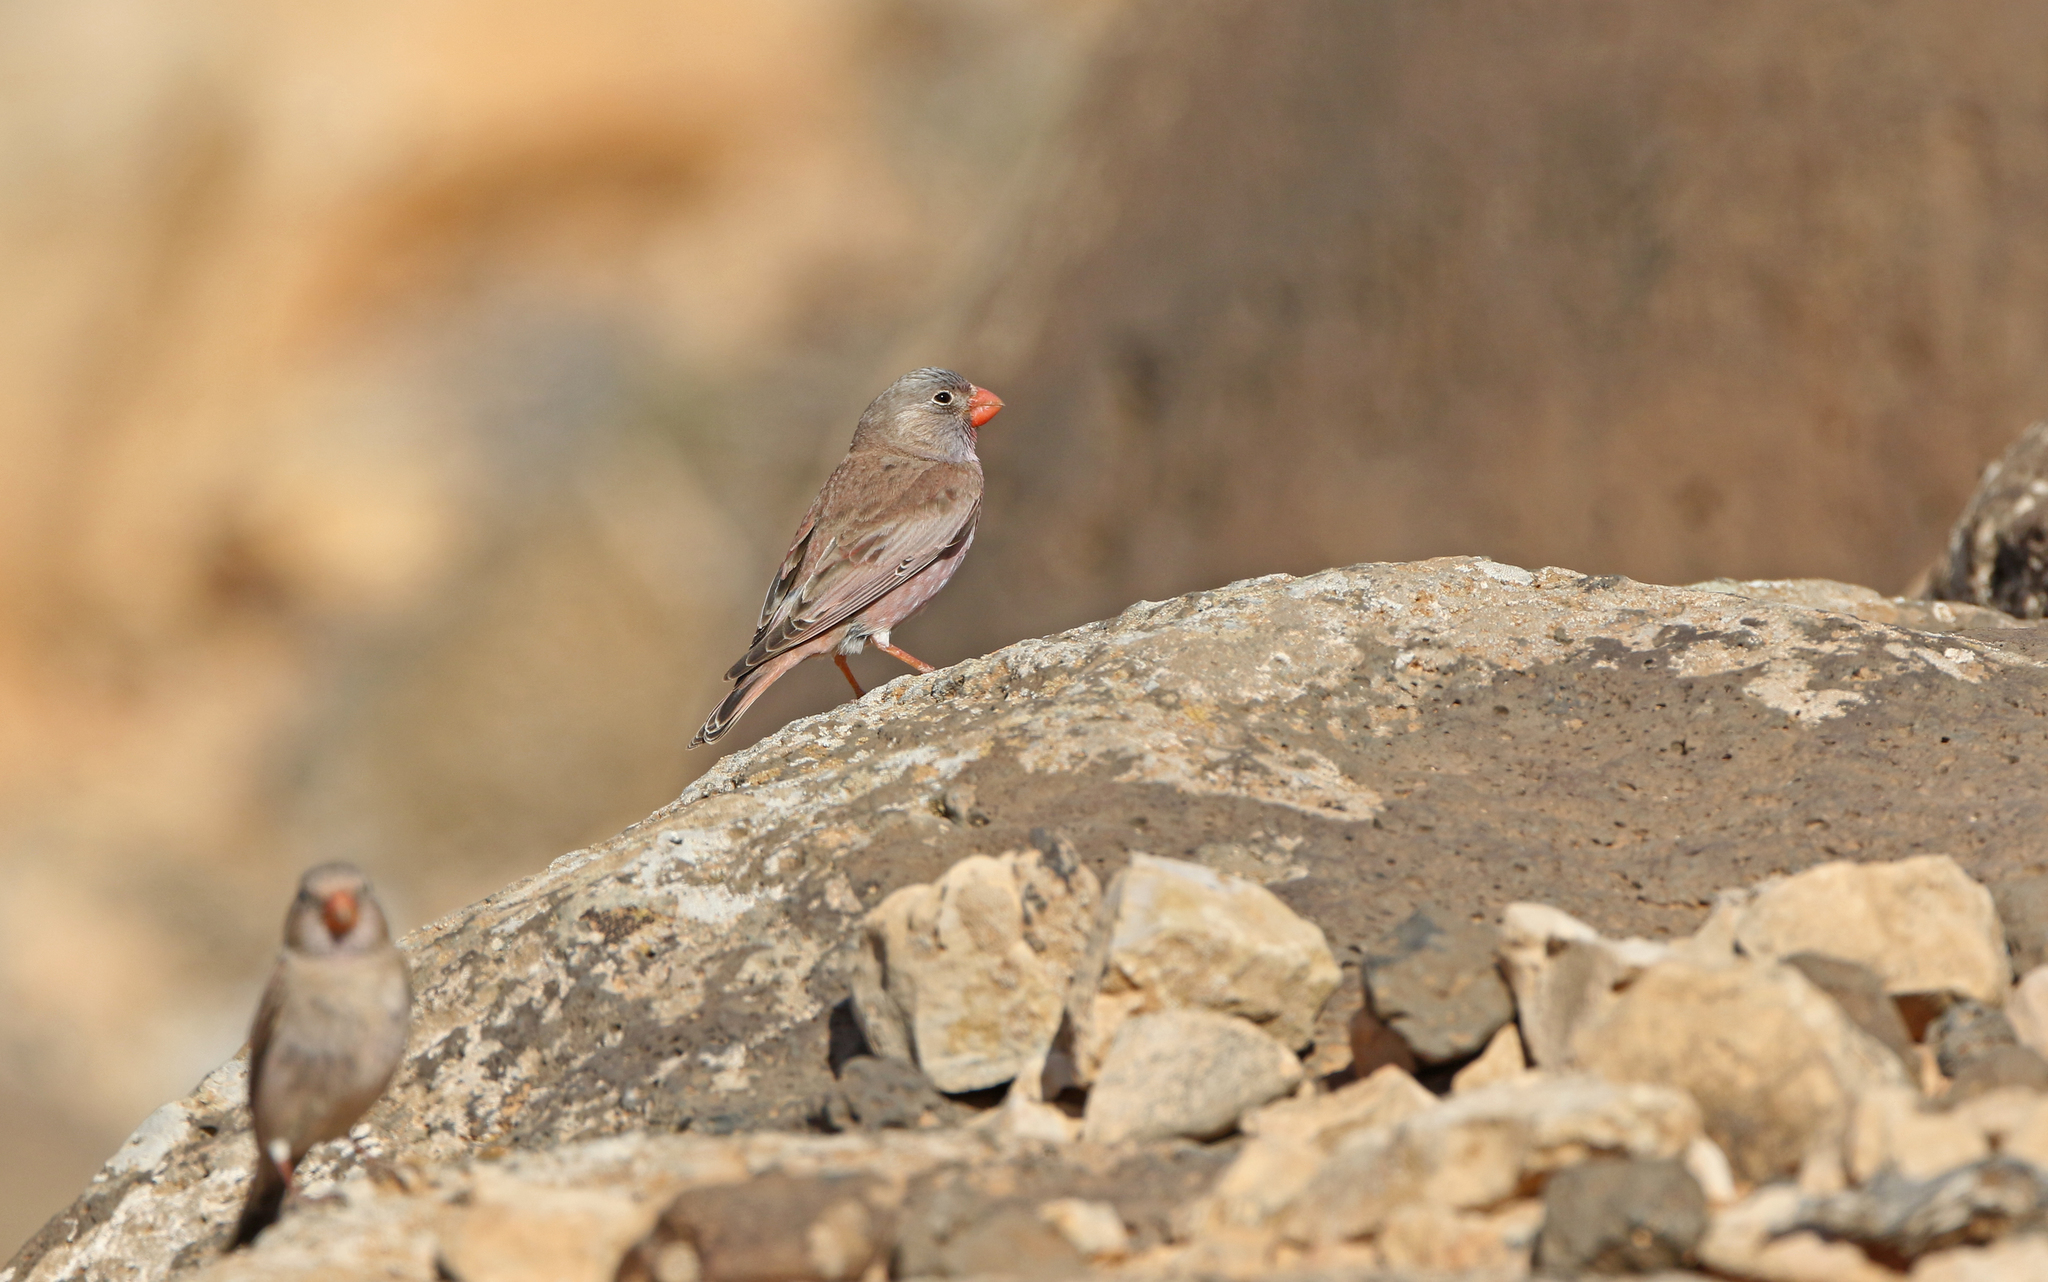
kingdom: Animalia
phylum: Chordata
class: Aves
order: Passeriformes
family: Fringillidae
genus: Bucanetes
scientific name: Bucanetes githagineus
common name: Trumpeter finch
